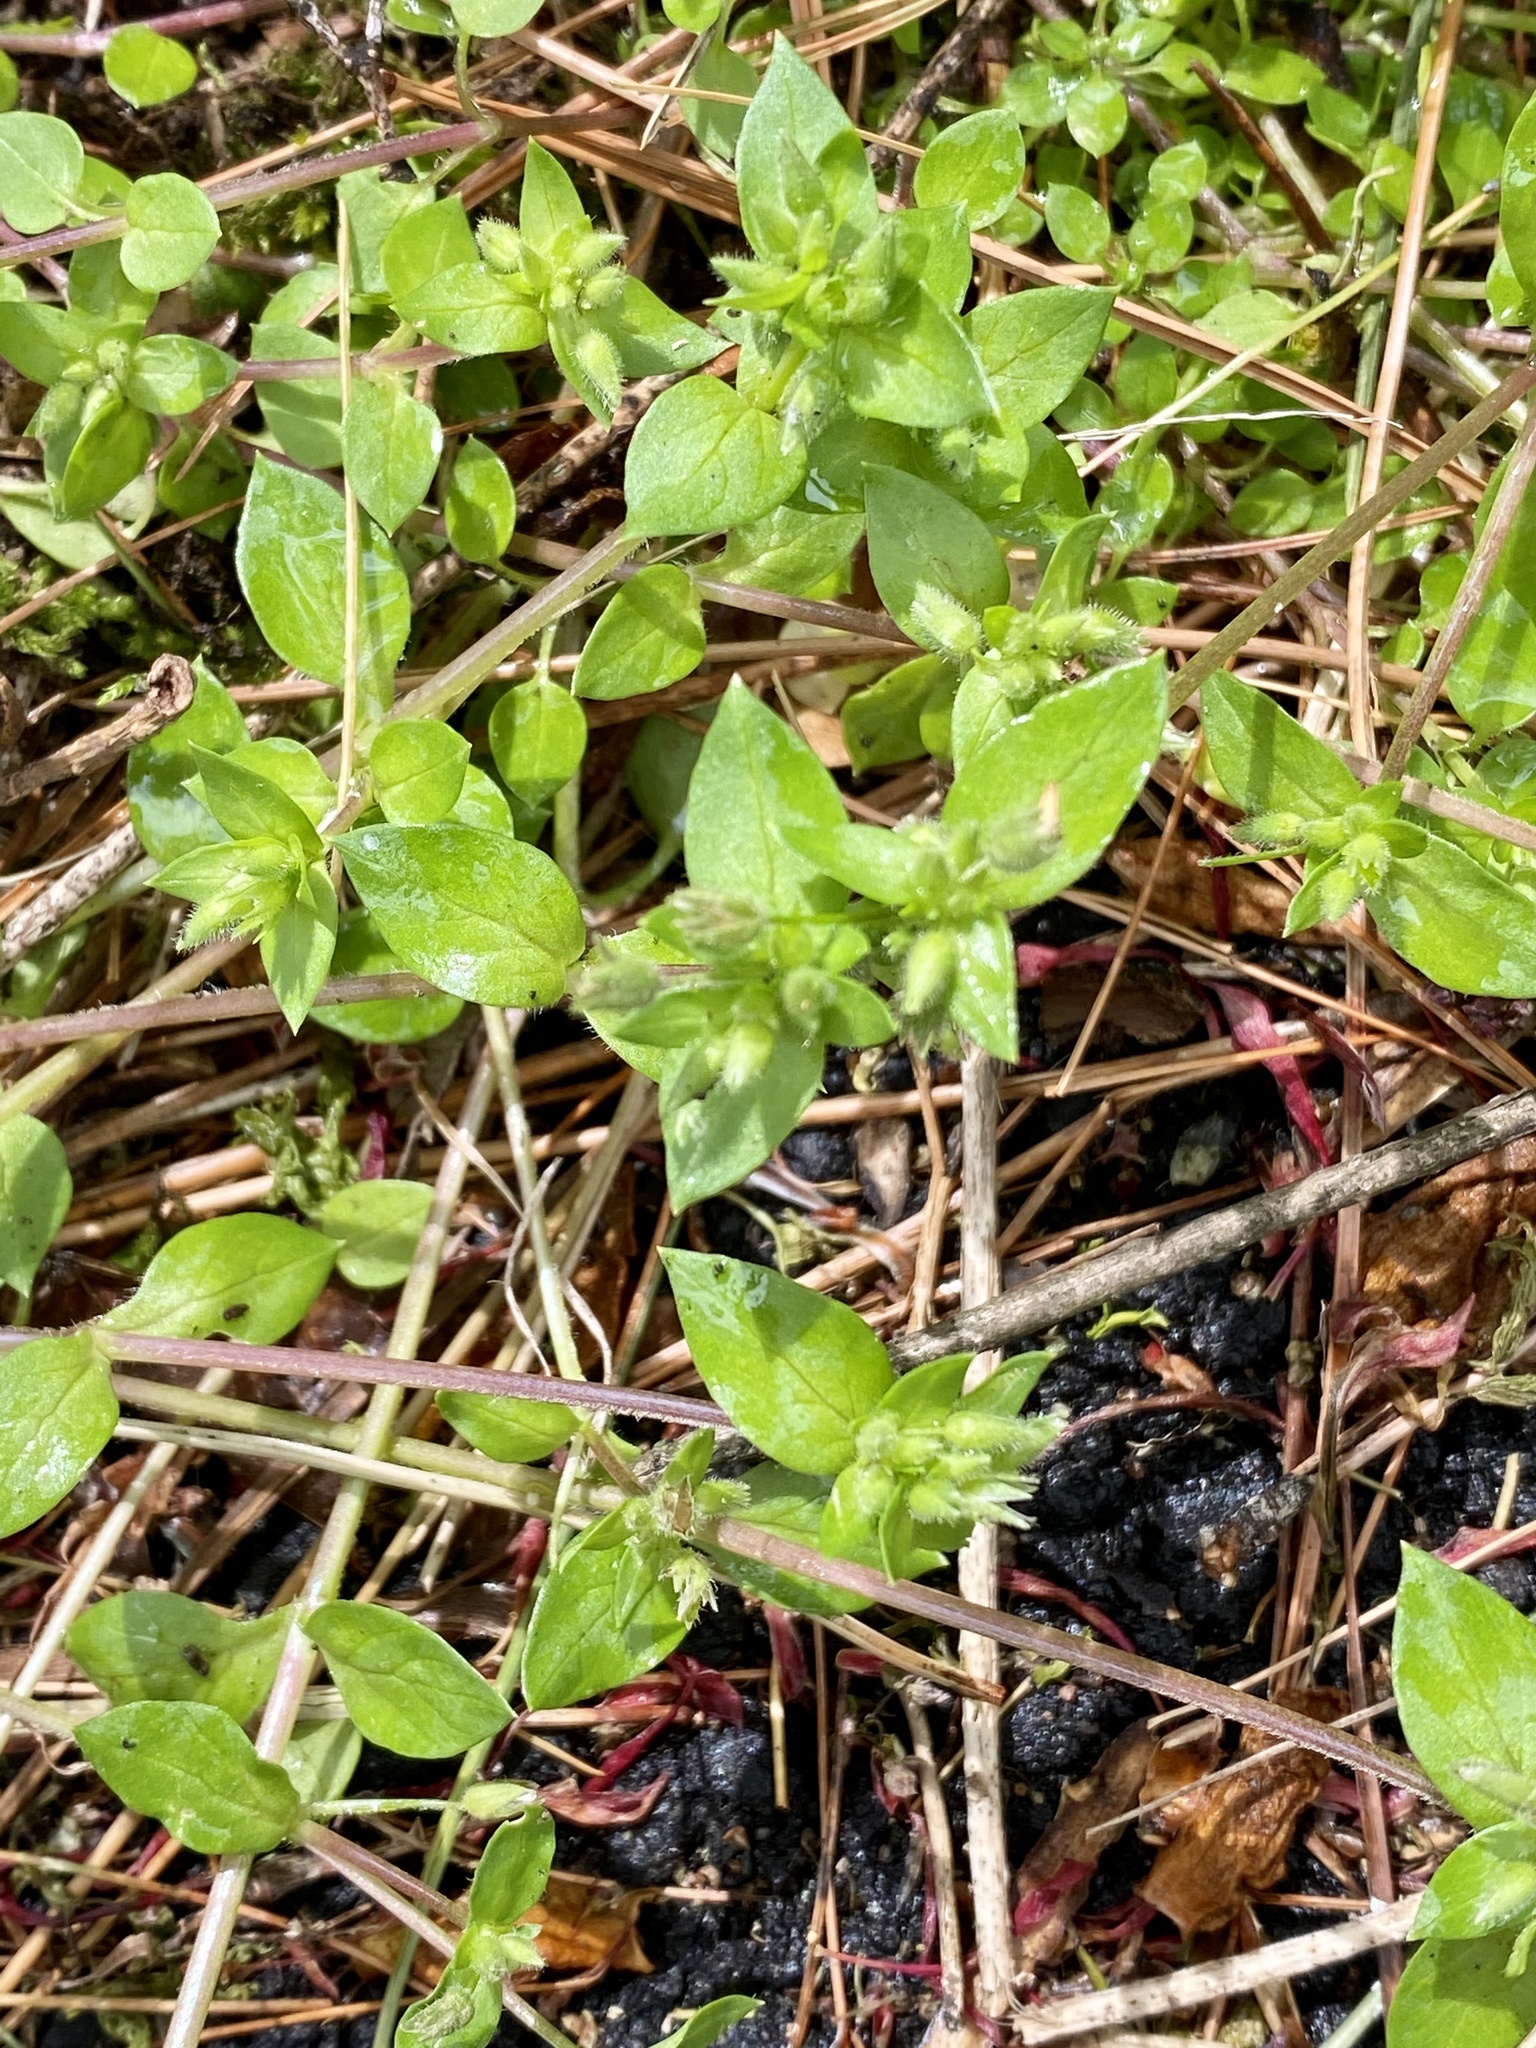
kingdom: Plantae
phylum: Tracheophyta
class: Magnoliopsida
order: Caryophyllales
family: Caryophyllaceae
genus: Stellaria
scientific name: Stellaria media
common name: Common chickweed
